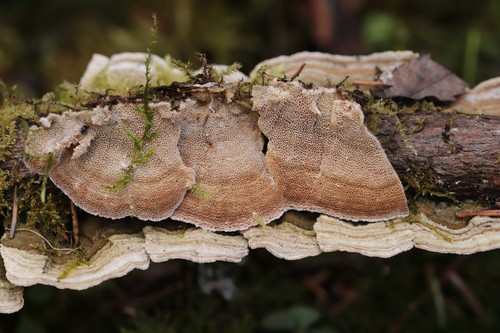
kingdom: Fungi
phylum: Basidiomycota
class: Agaricomycetes
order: Hymenochaetales
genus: Trichaptum
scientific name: Trichaptum abietinum
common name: Purplepore bracket
